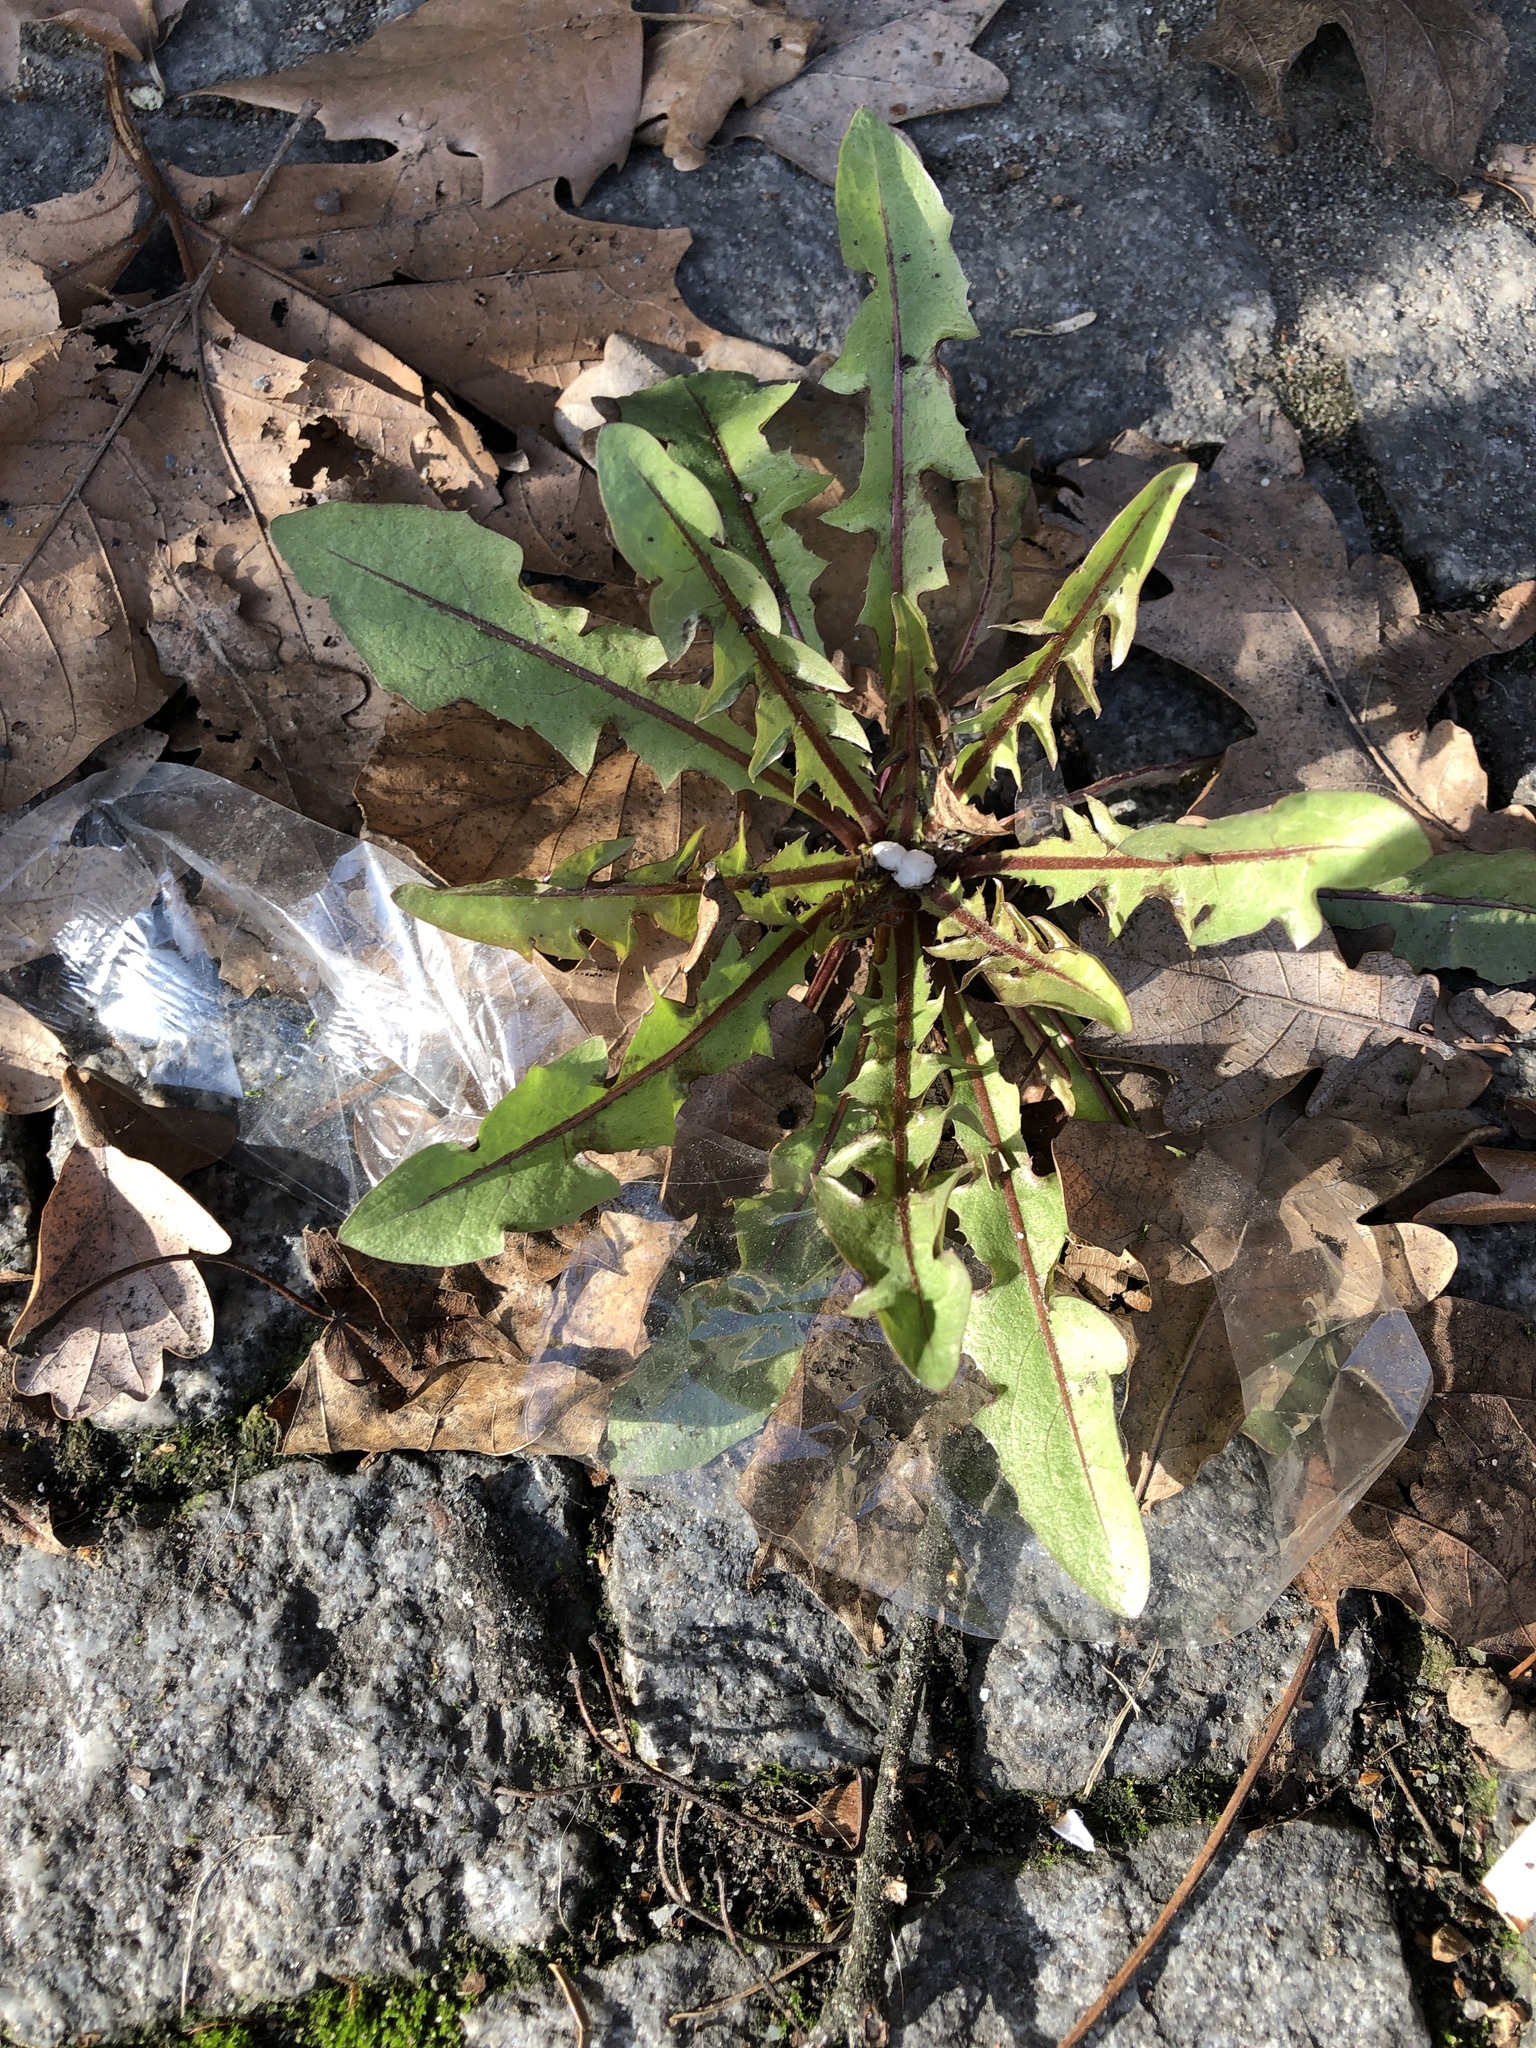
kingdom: Plantae
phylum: Tracheophyta
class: Magnoliopsida
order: Asterales
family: Asteraceae
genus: Taraxacum
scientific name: Taraxacum officinale
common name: Common dandelion
